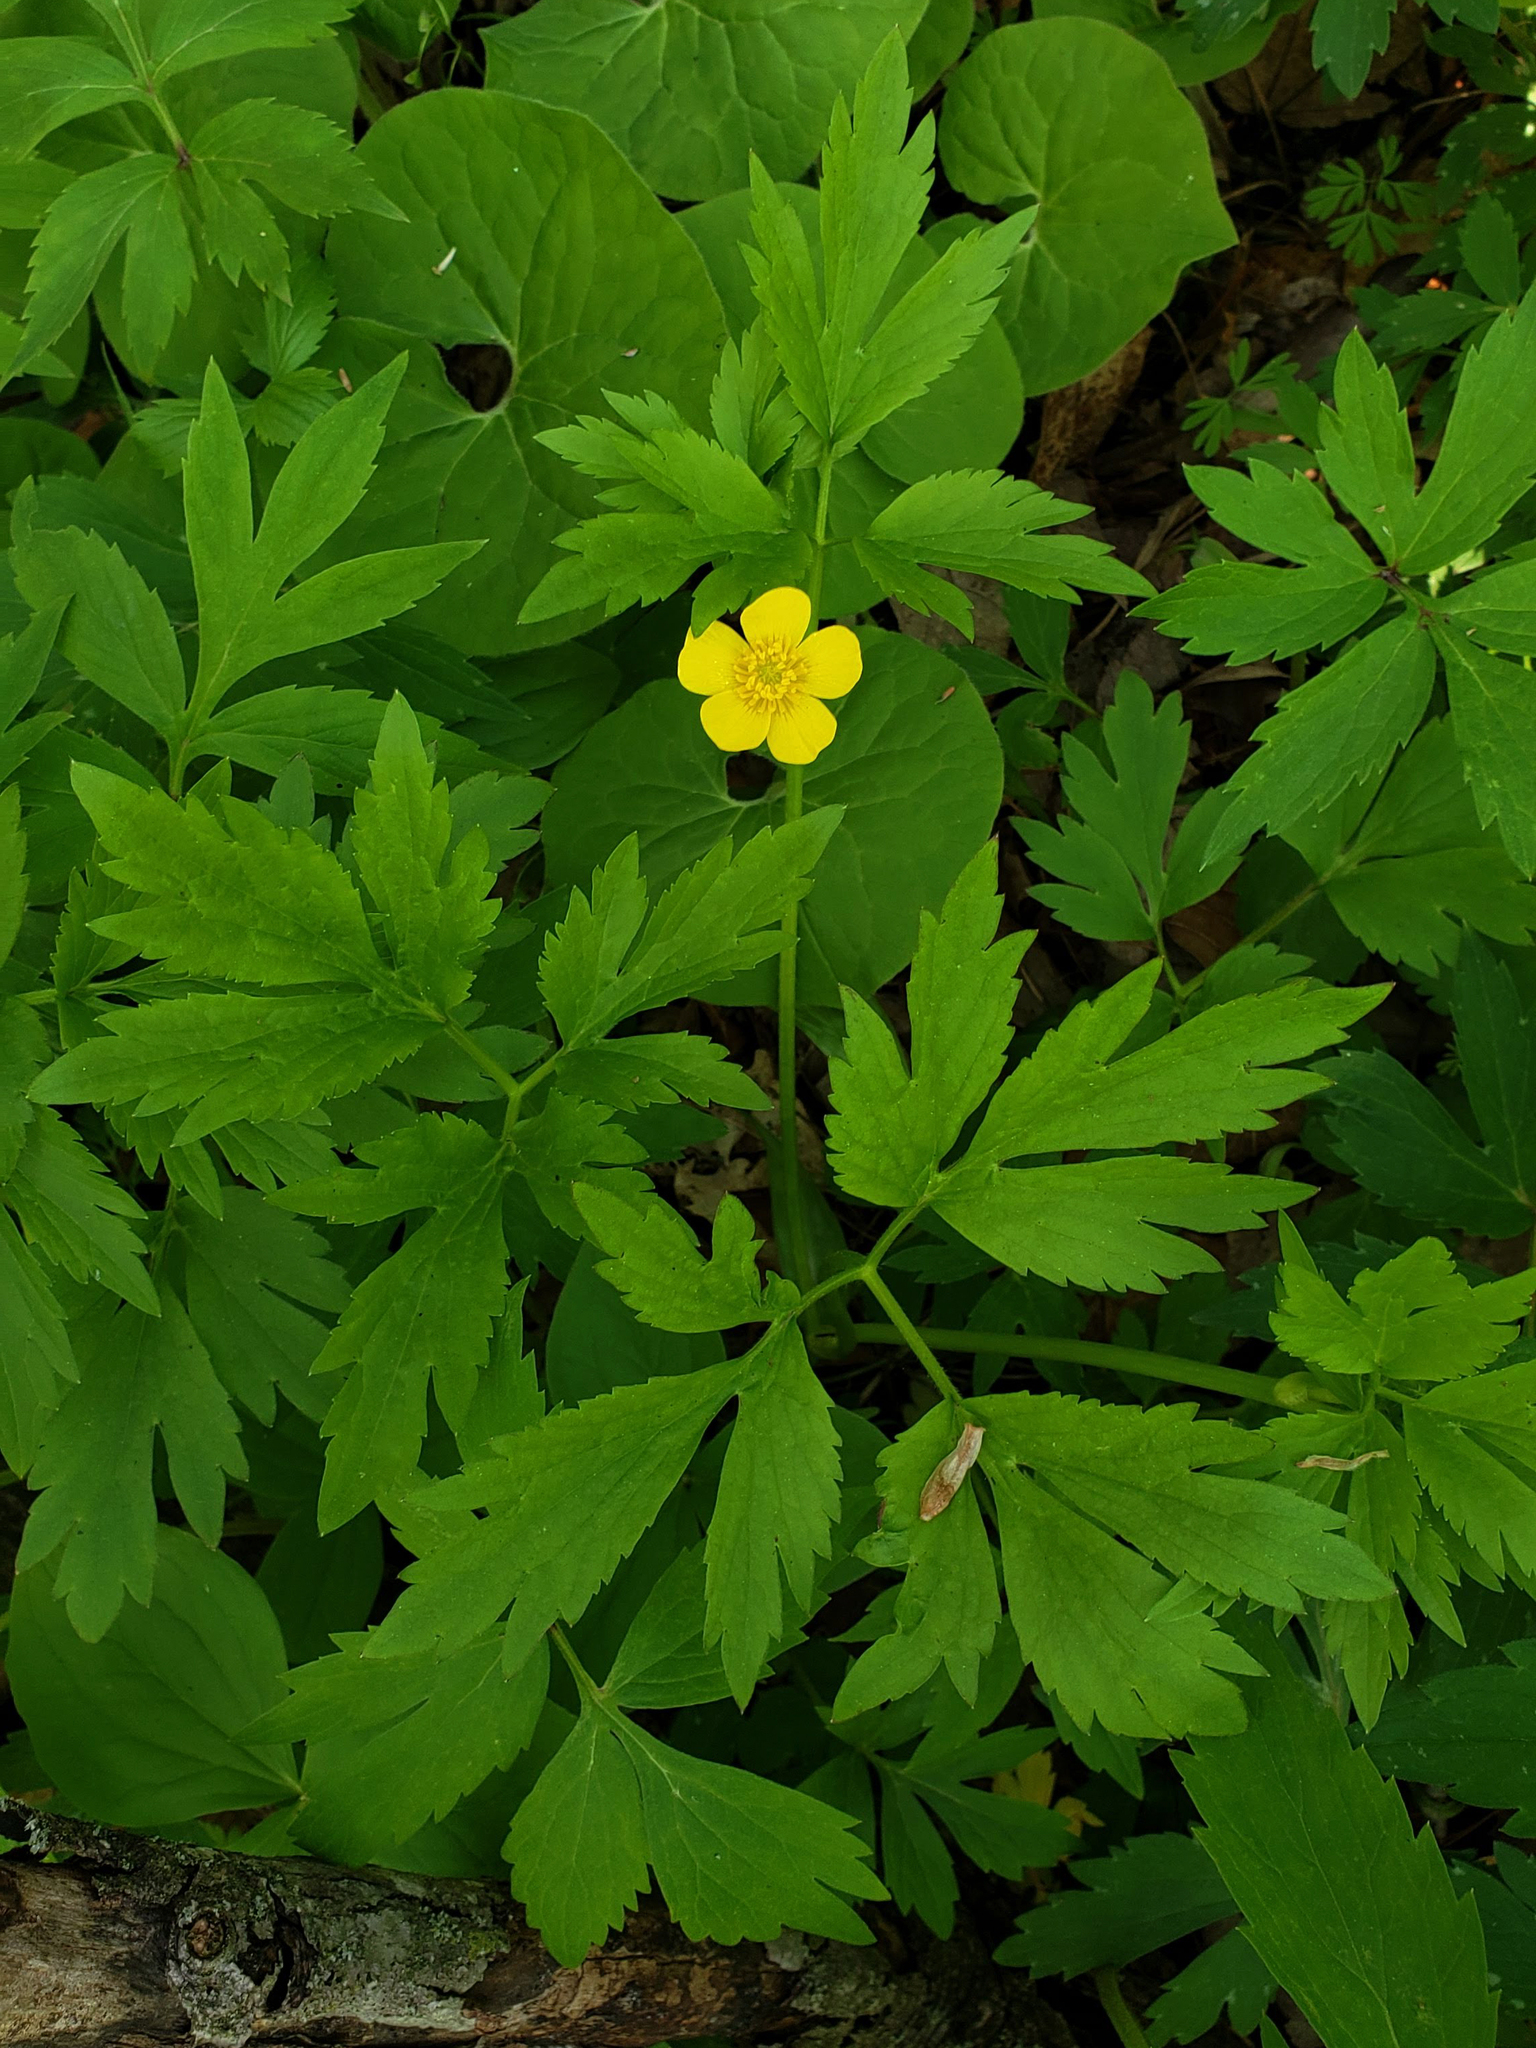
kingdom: Plantae
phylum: Tracheophyta
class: Magnoliopsida
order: Ranunculales
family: Ranunculaceae
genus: Ranunculus
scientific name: Ranunculus hispidus
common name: Bristly buttercup
